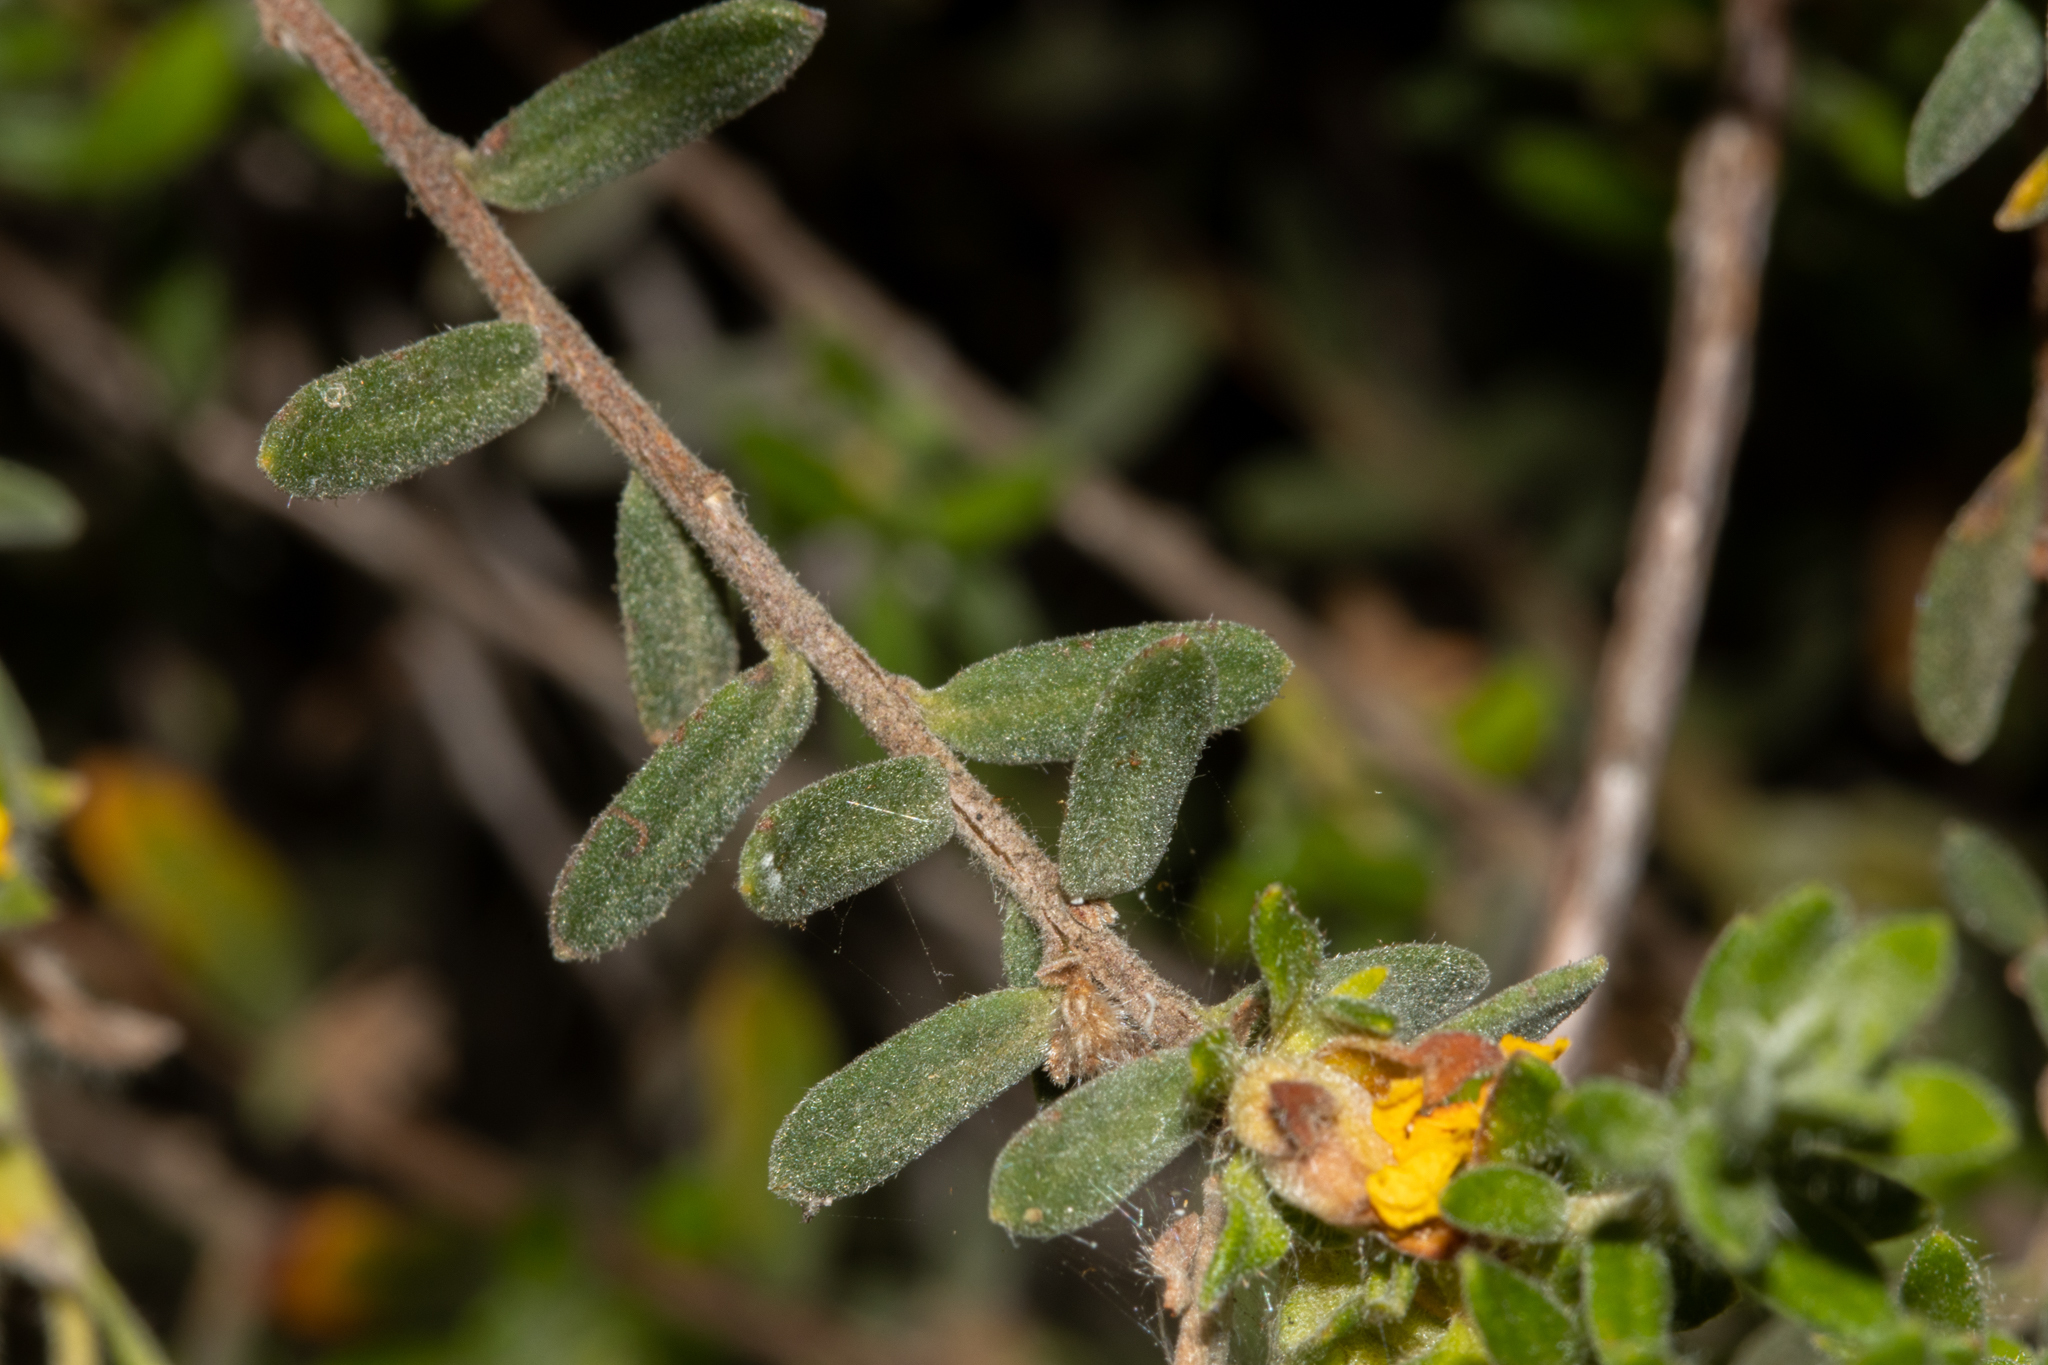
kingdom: Plantae
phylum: Tracheophyta
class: Magnoliopsida
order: Dilleniales
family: Dilleniaceae
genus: Hibbertia
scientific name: Hibbertia crinita
